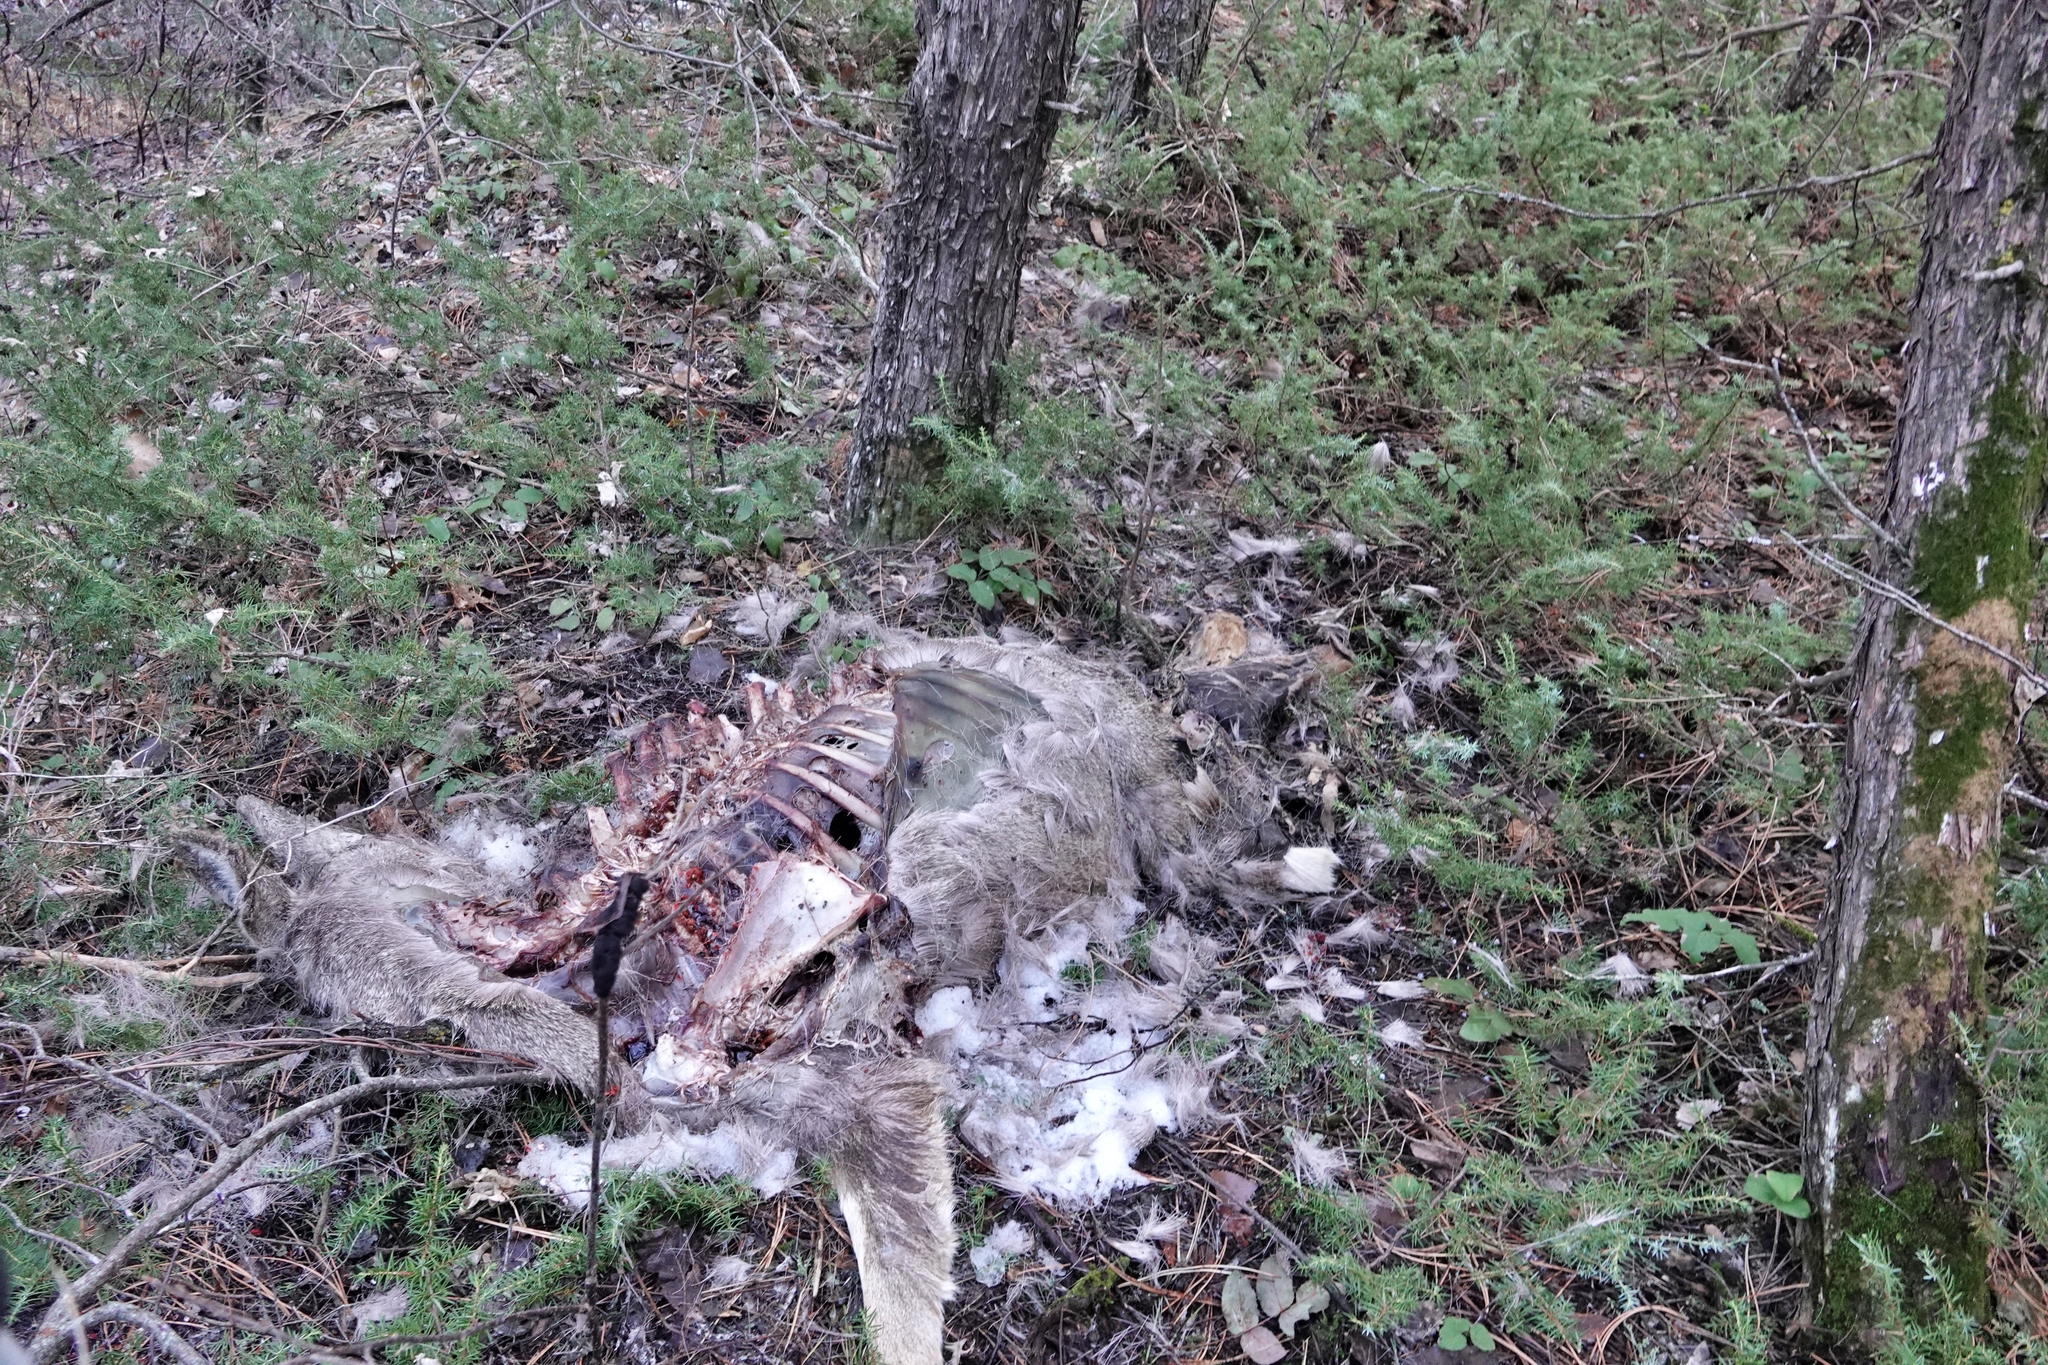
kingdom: Animalia
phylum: Chordata
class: Mammalia
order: Artiodactyla
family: Cervidae
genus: Odocoileus
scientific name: Odocoileus virginianus
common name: White-tailed deer
